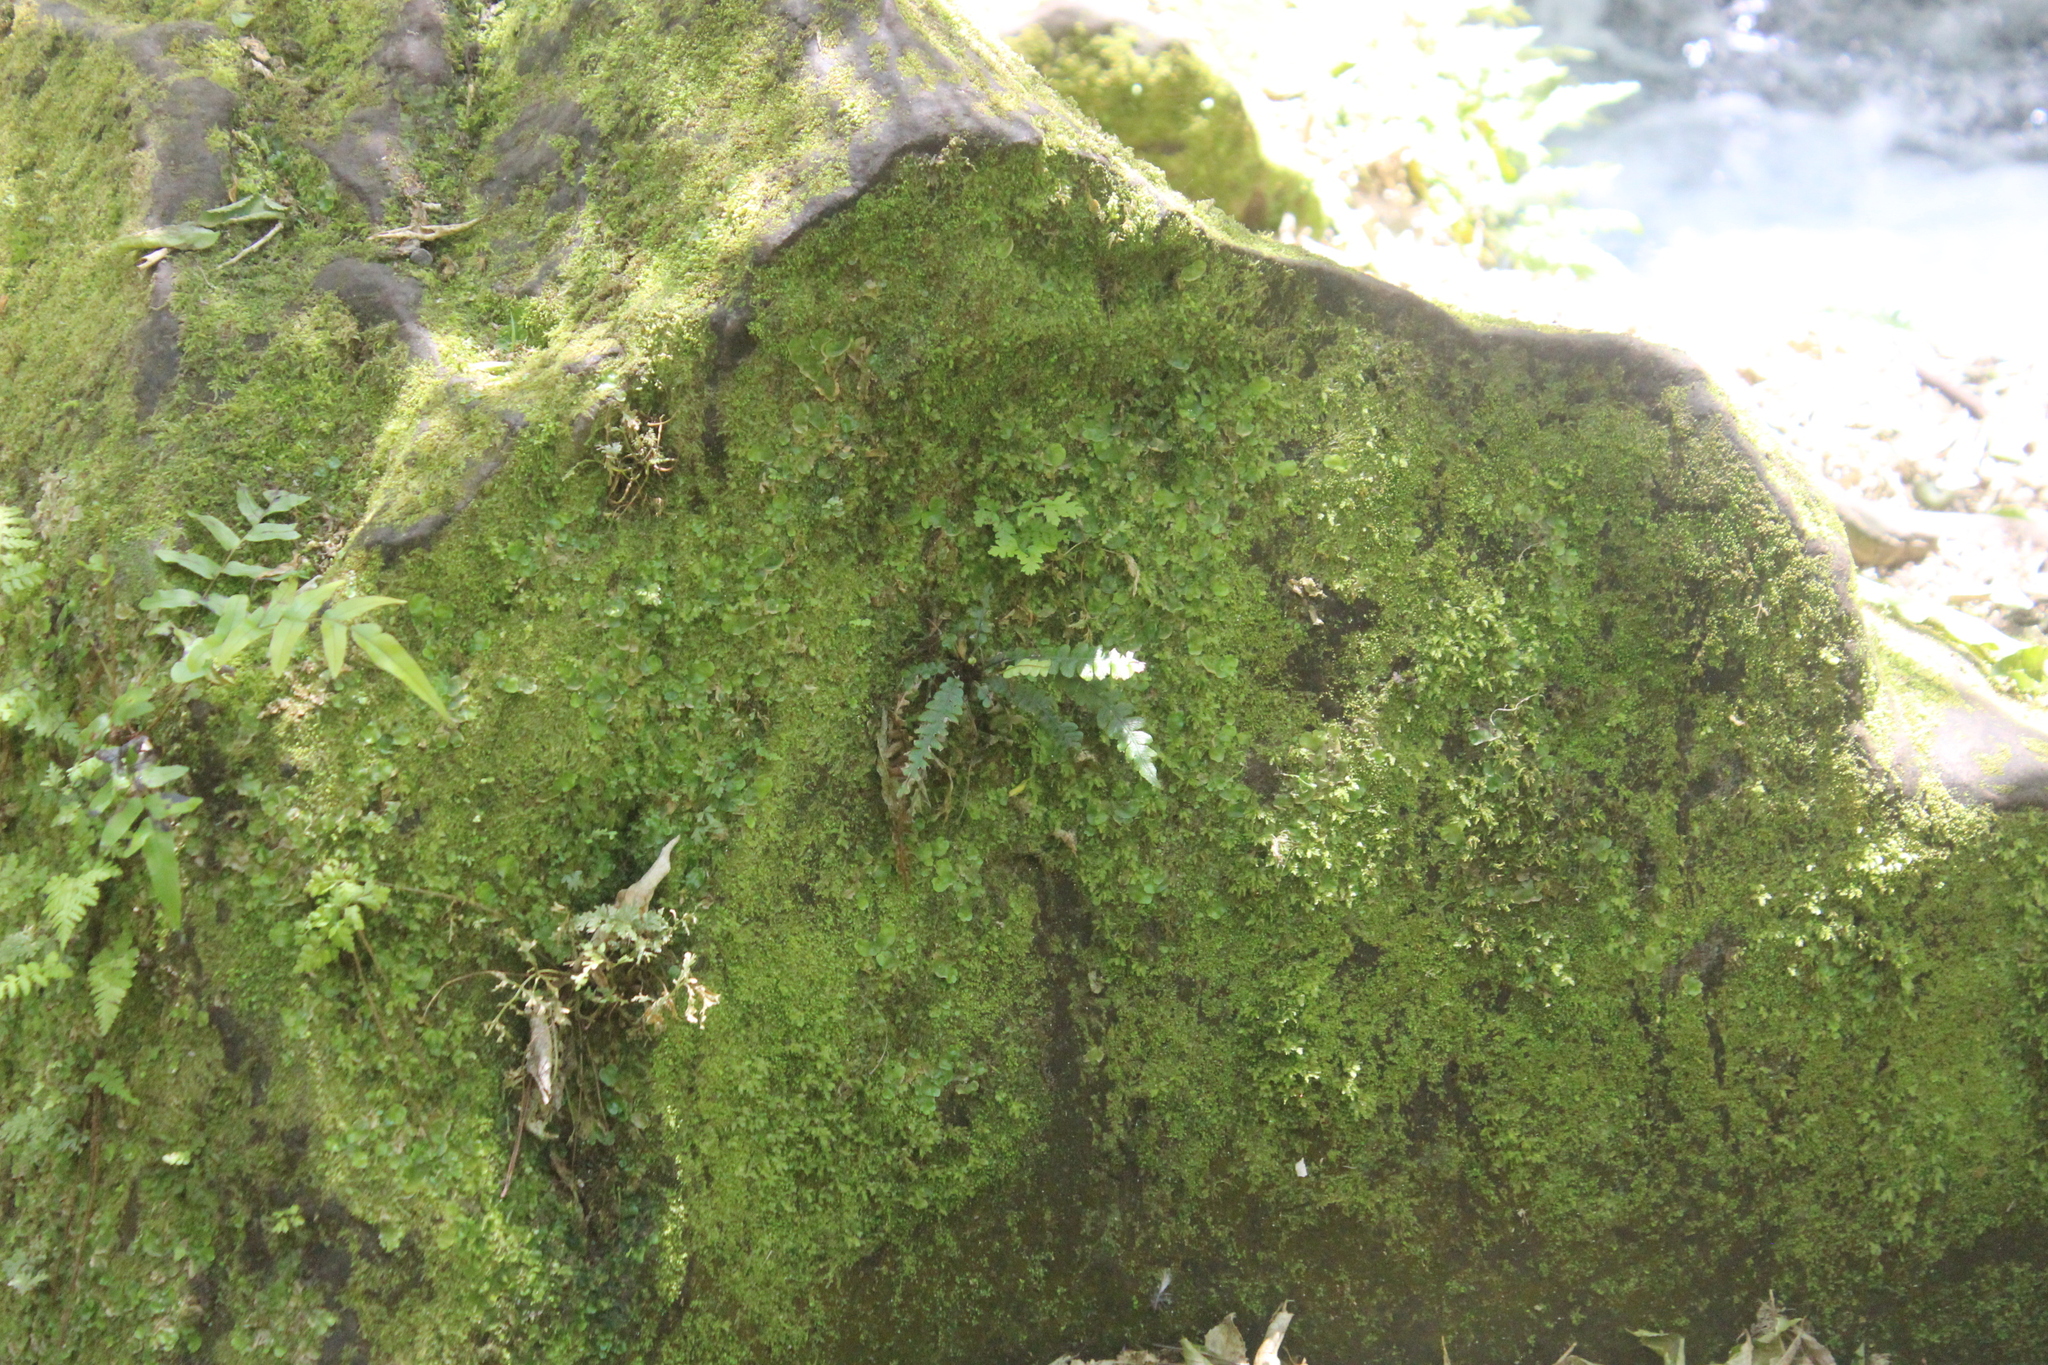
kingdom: Plantae
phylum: Tracheophyta
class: Polypodiopsida
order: Polypodiales
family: Blechnaceae
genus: Austroblechnum
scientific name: Austroblechnum membranaceum
